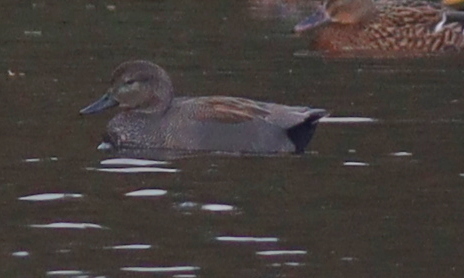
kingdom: Animalia
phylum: Chordata
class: Aves
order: Anseriformes
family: Anatidae
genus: Mareca
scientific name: Mareca strepera
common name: Gadwall
